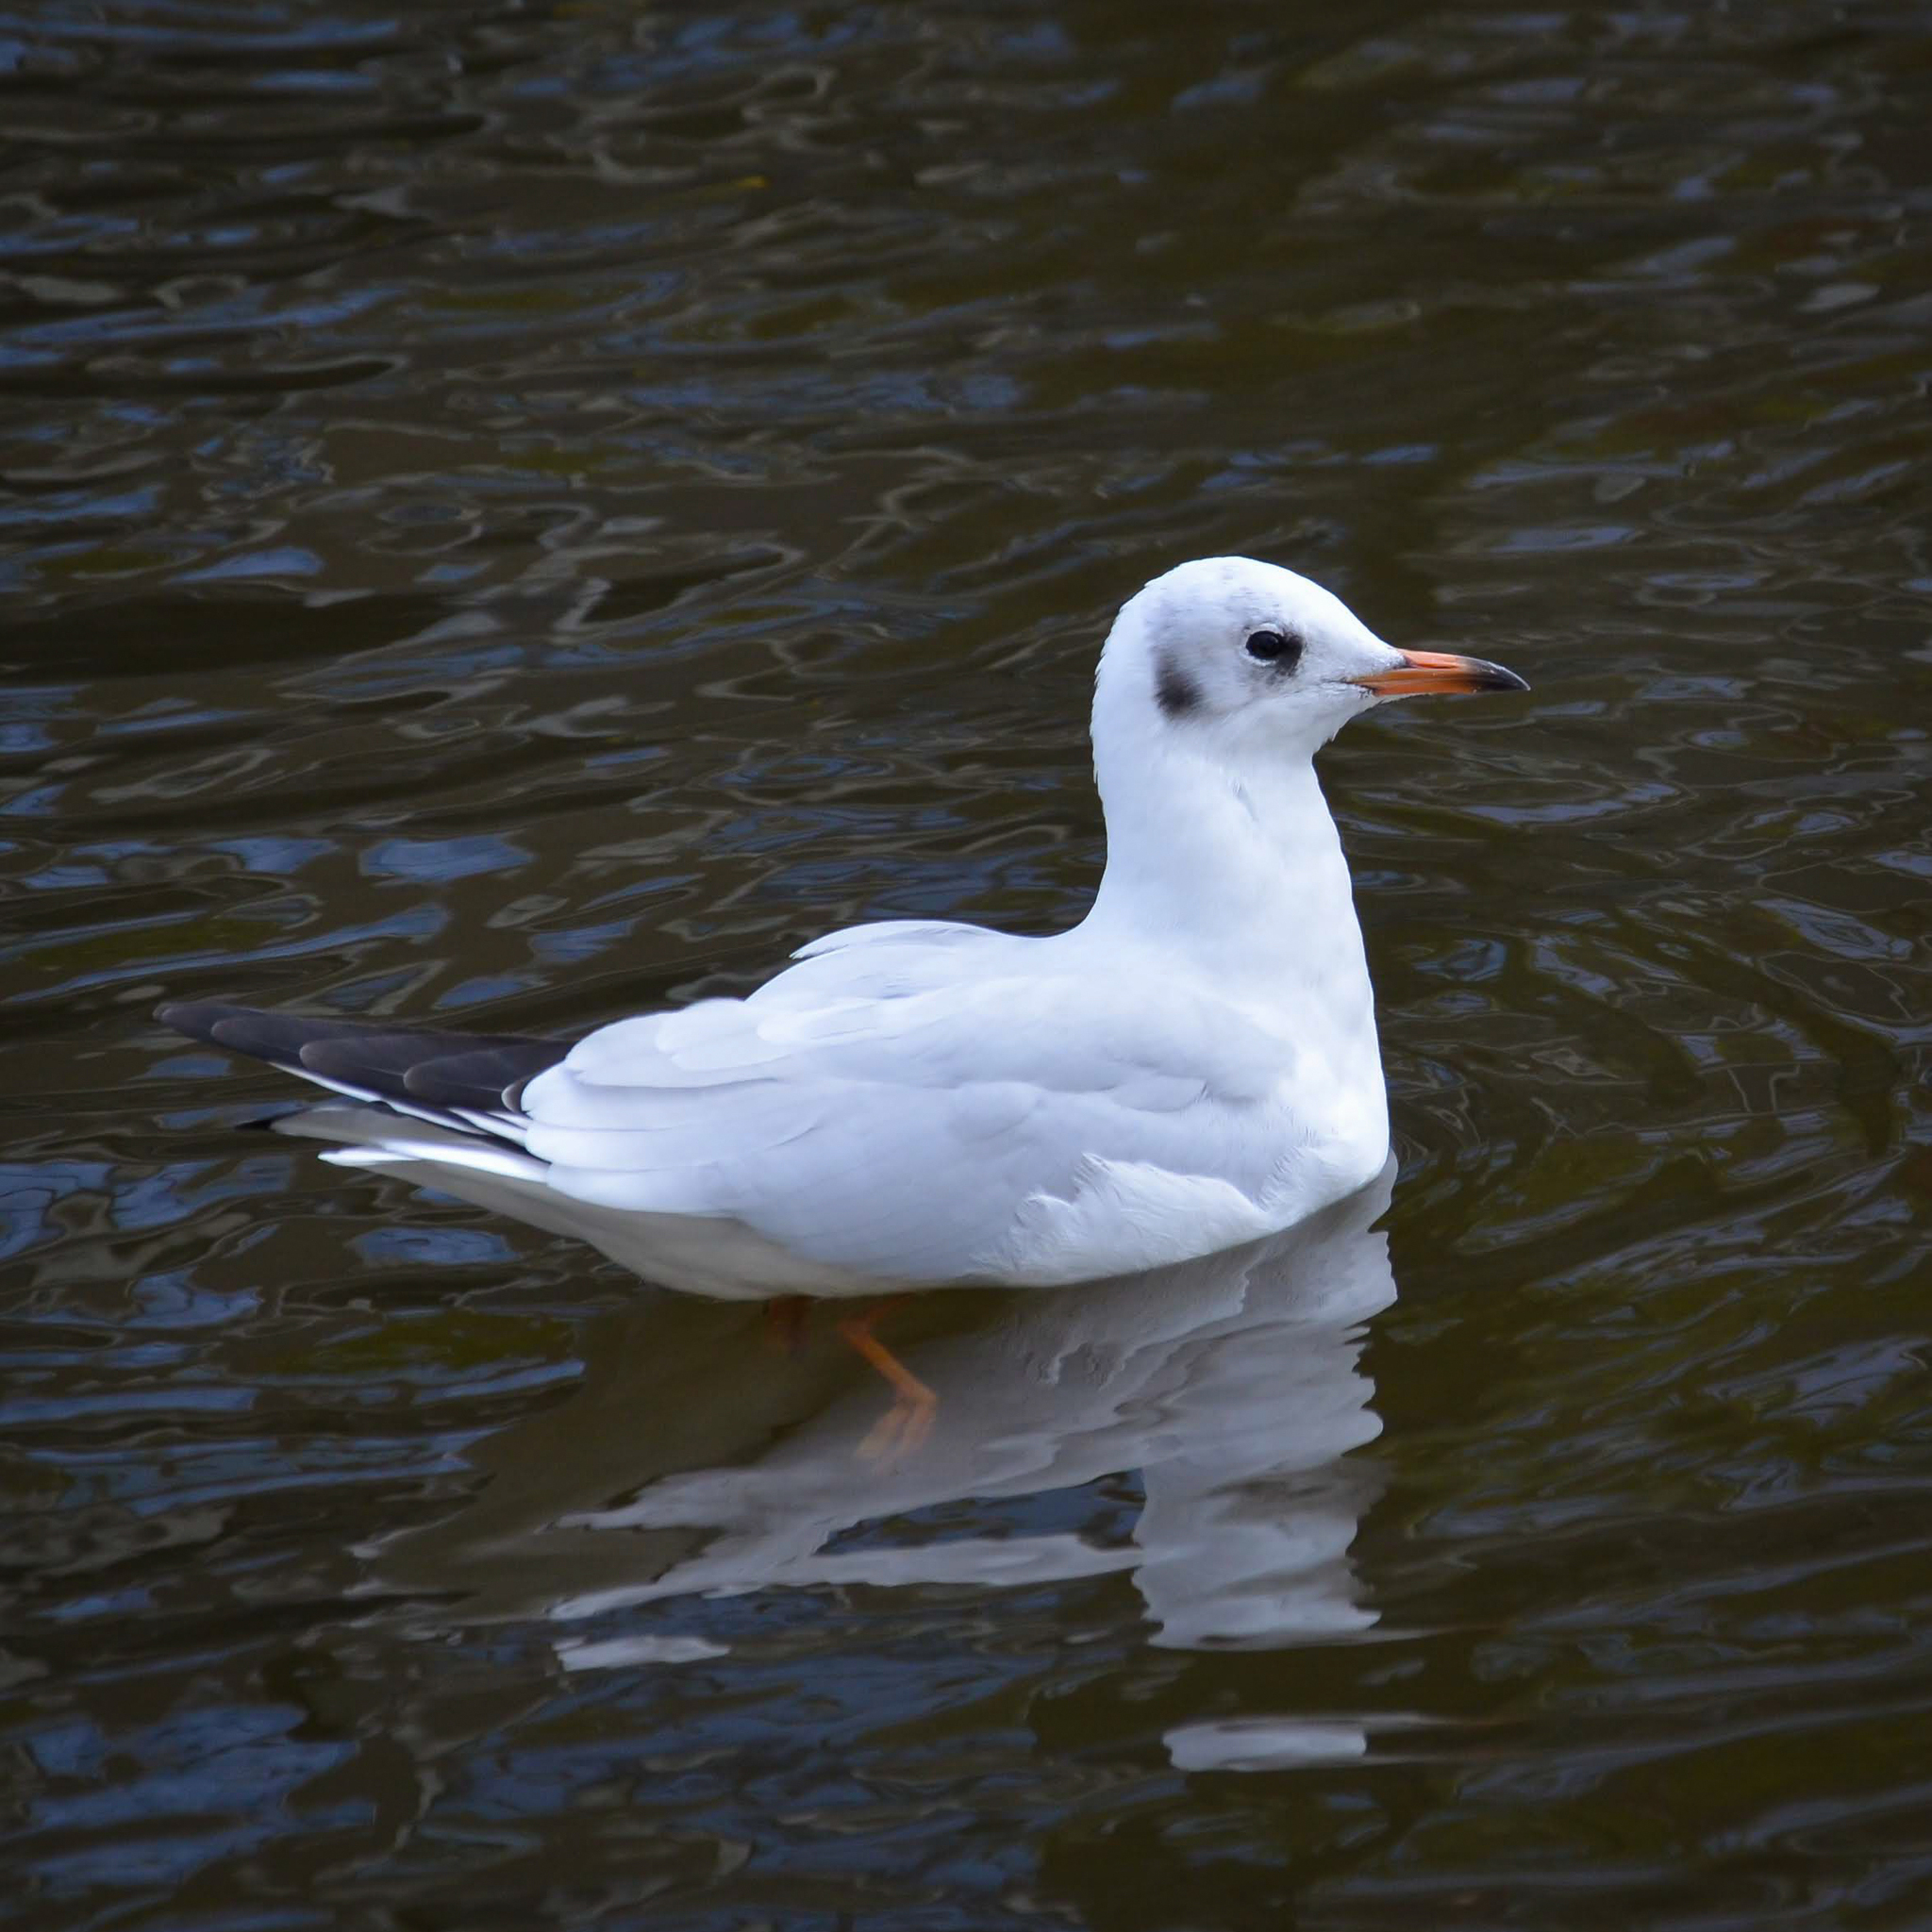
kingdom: Animalia
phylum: Chordata
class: Aves
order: Charadriiformes
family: Laridae
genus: Chroicocephalus
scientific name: Chroicocephalus ridibundus
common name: Black-headed gull
